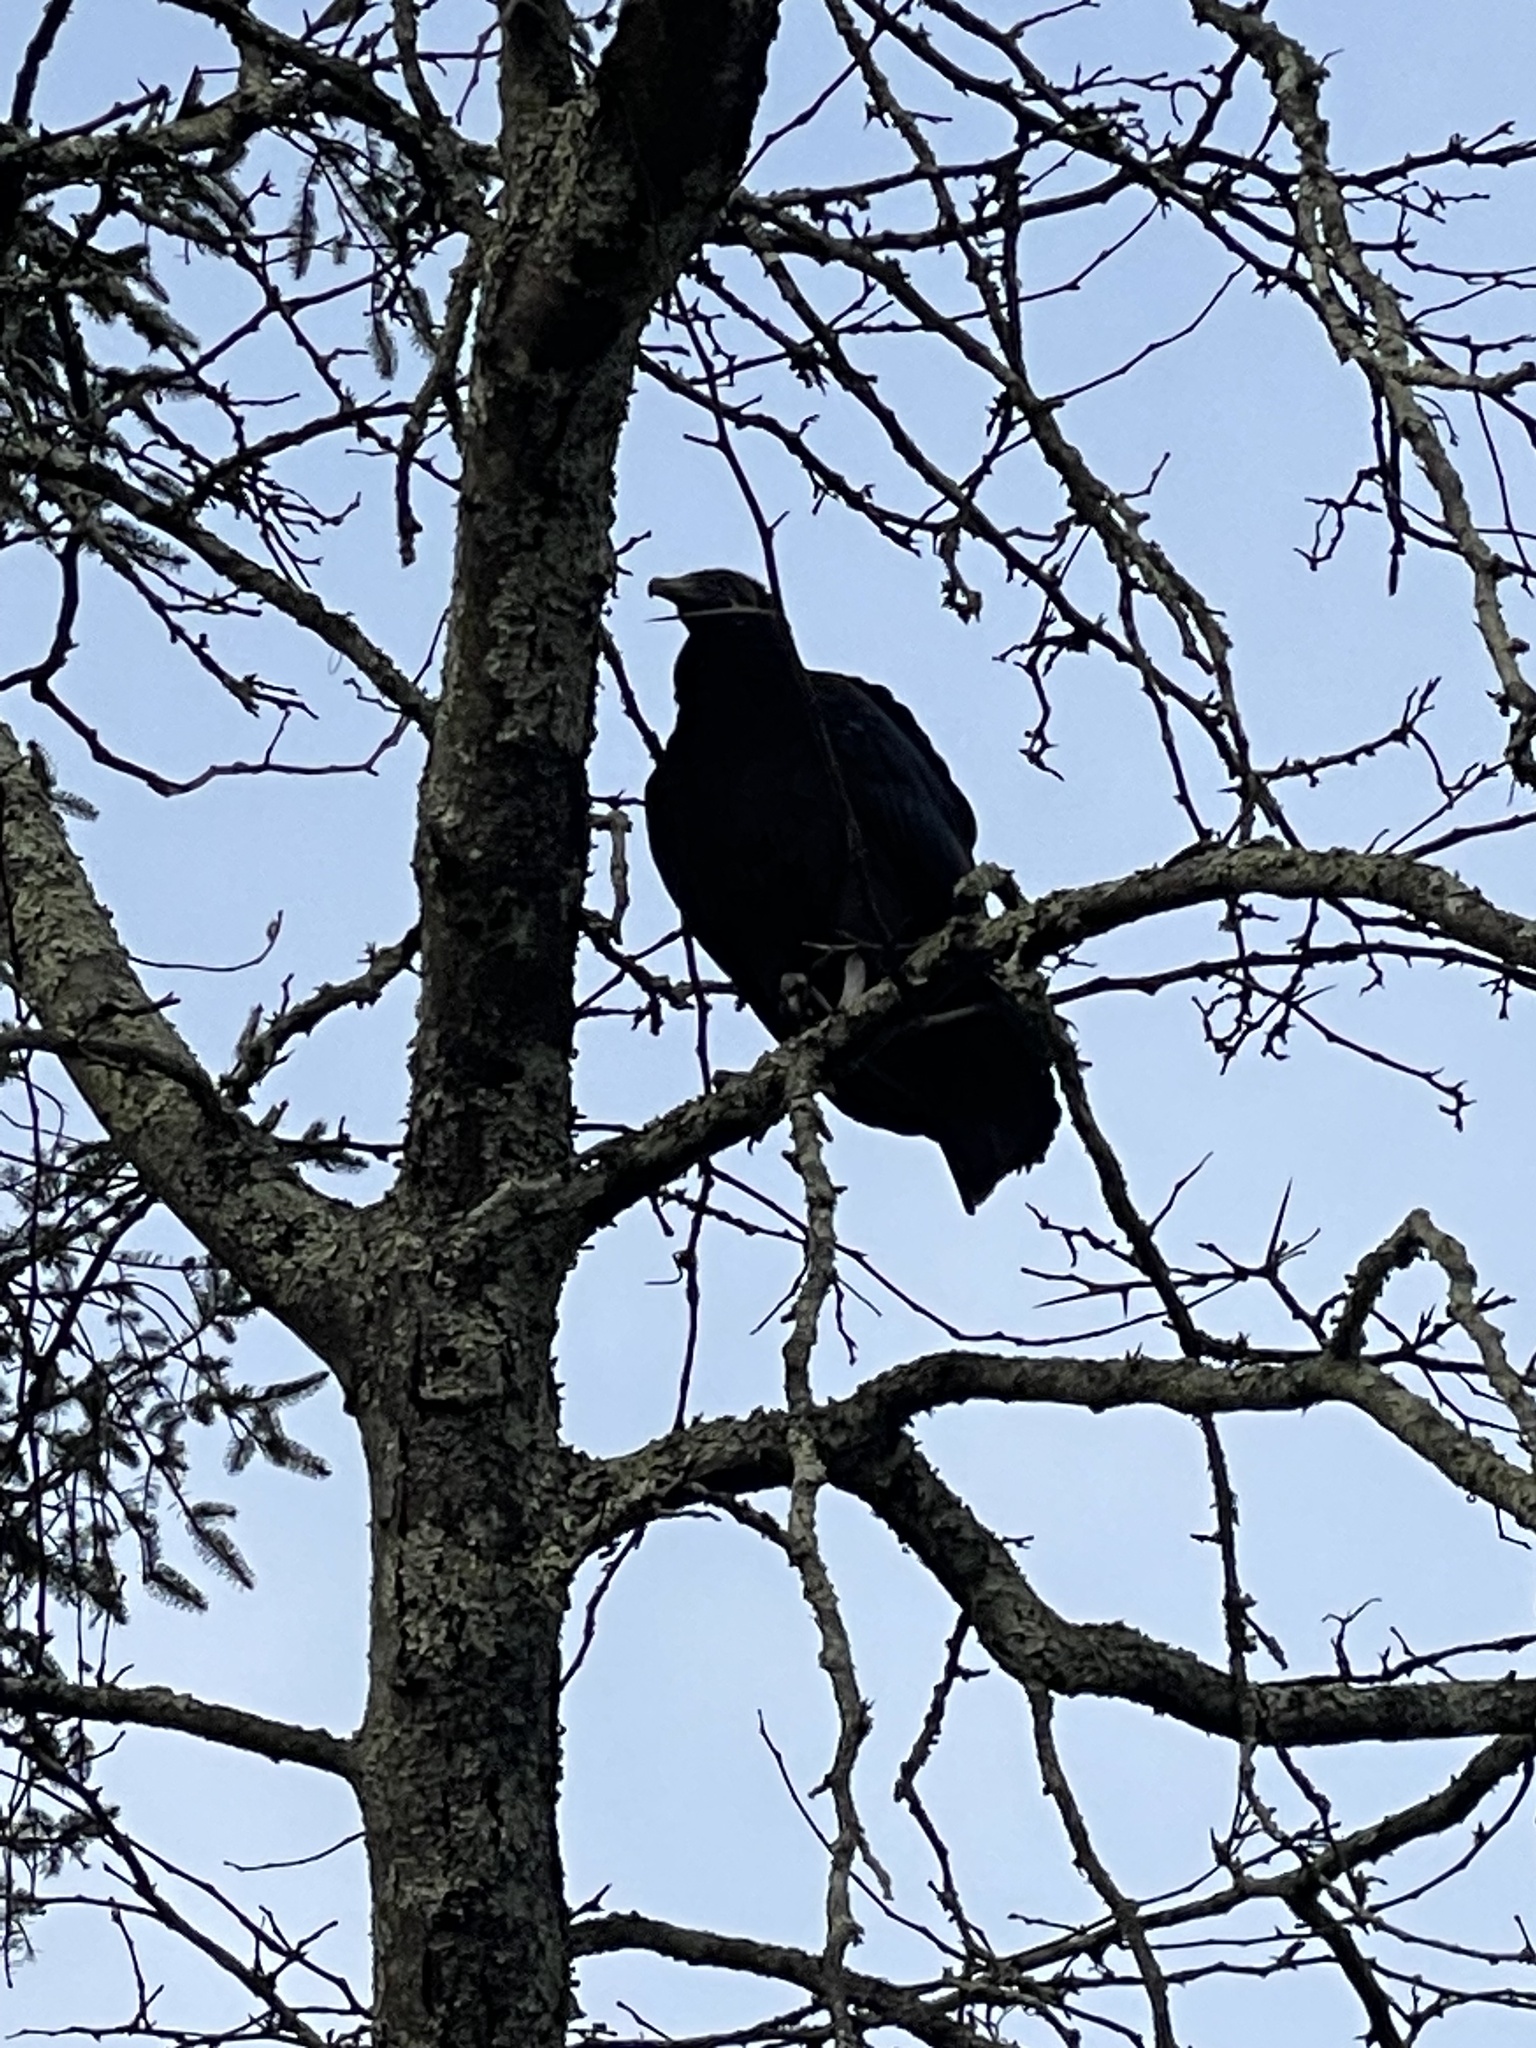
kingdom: Animalia
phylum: Chordata
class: Aves
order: Accipitriformes
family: Cathartidae
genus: Cathartes
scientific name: Cathartes aura
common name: Turkey vulture
